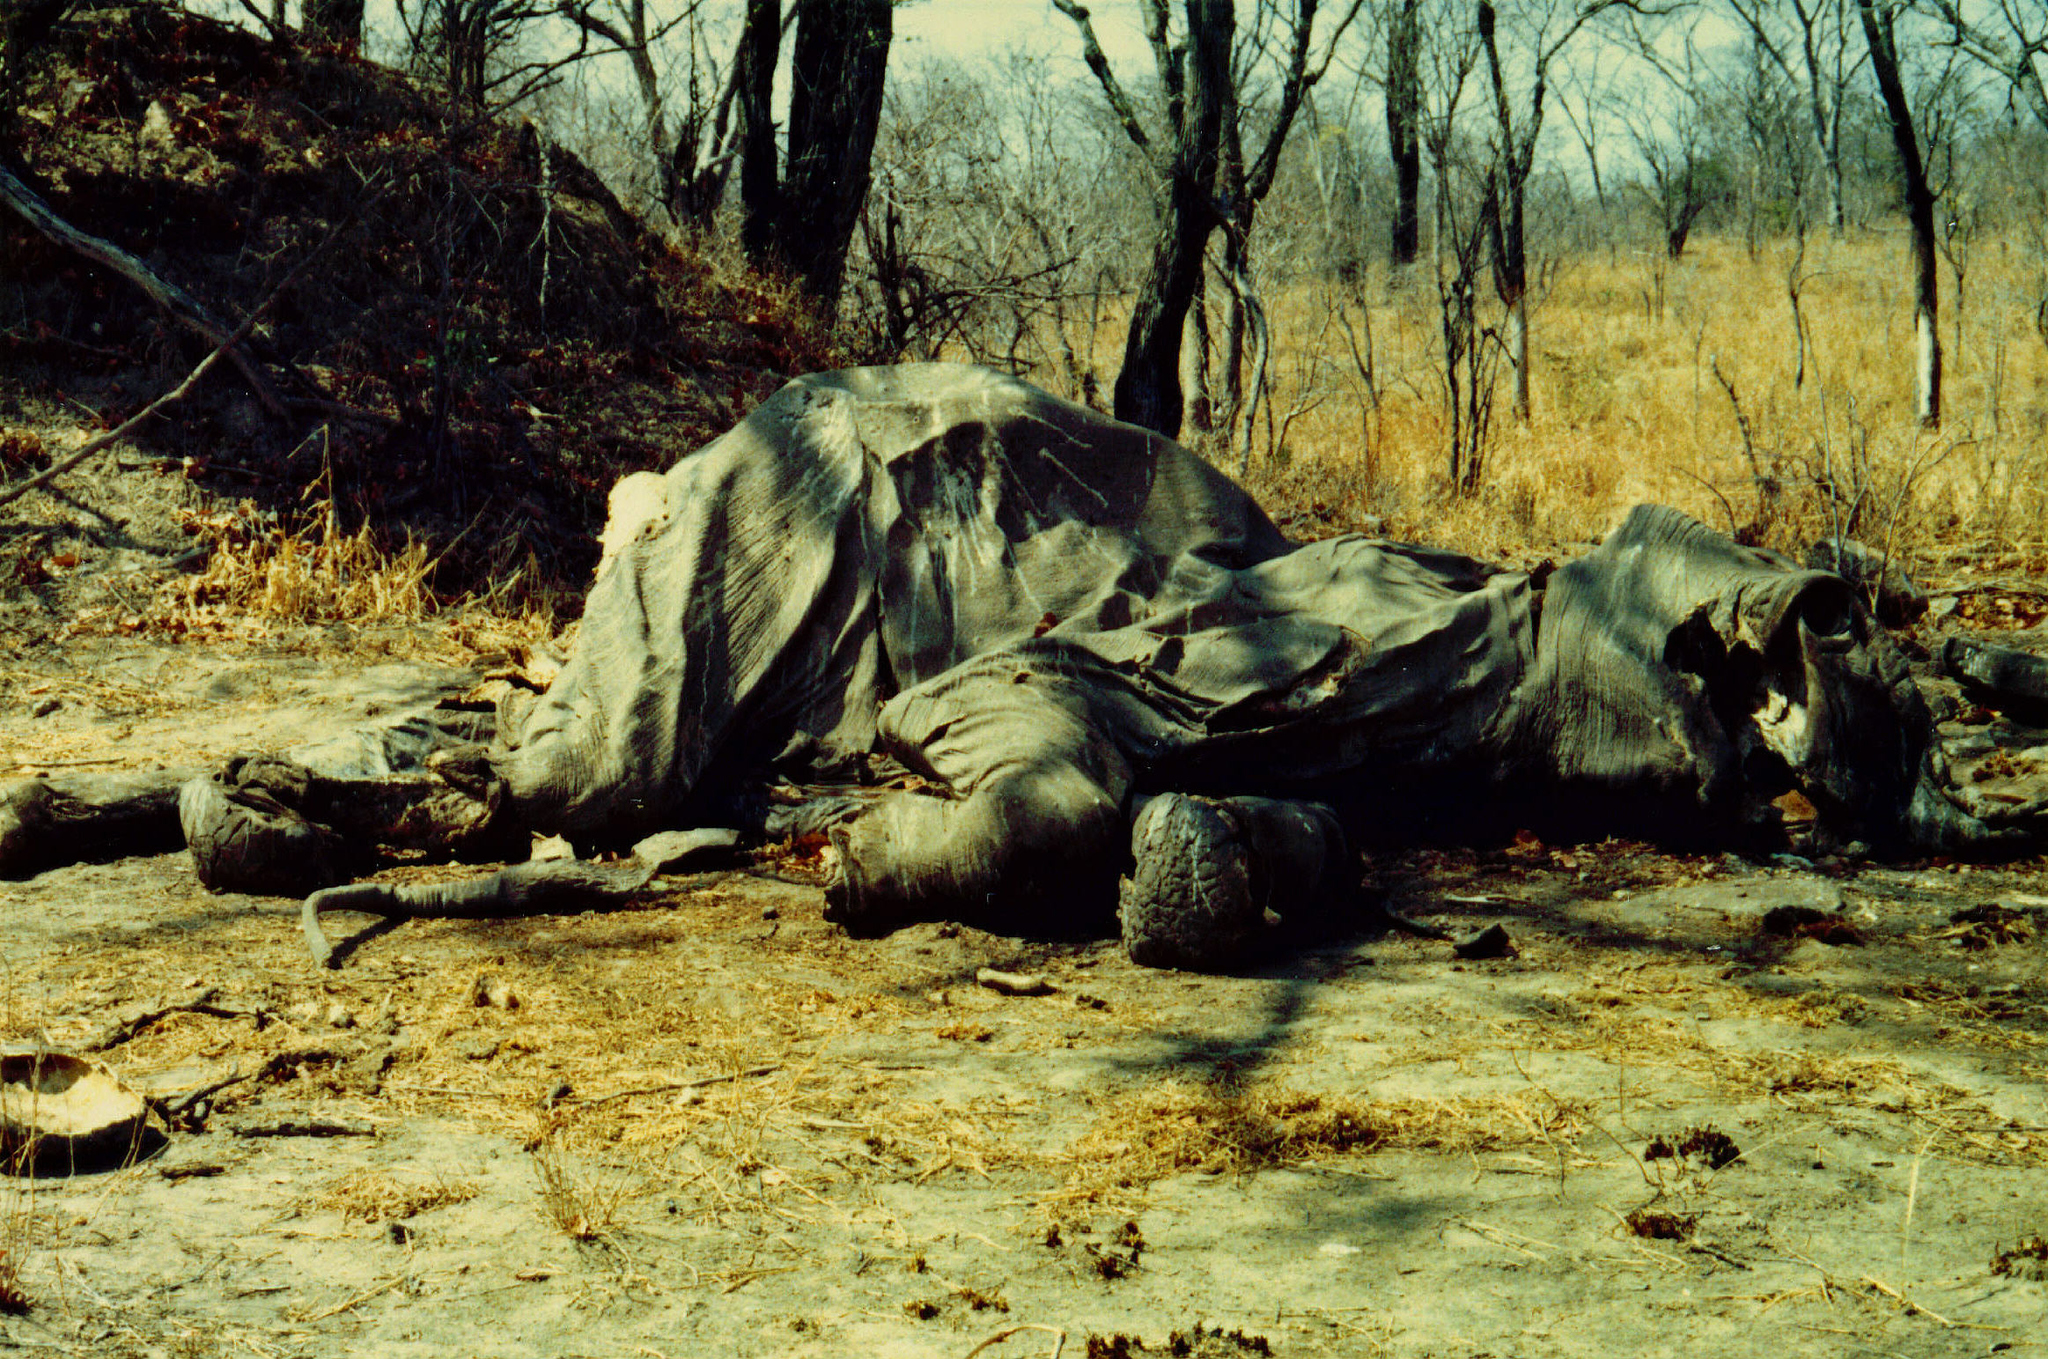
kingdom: Animalia
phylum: Chordata
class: Mammalia
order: Proboscidea
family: Elephantidae
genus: Loxodonta
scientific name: Loxodonta africana
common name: African elephant
